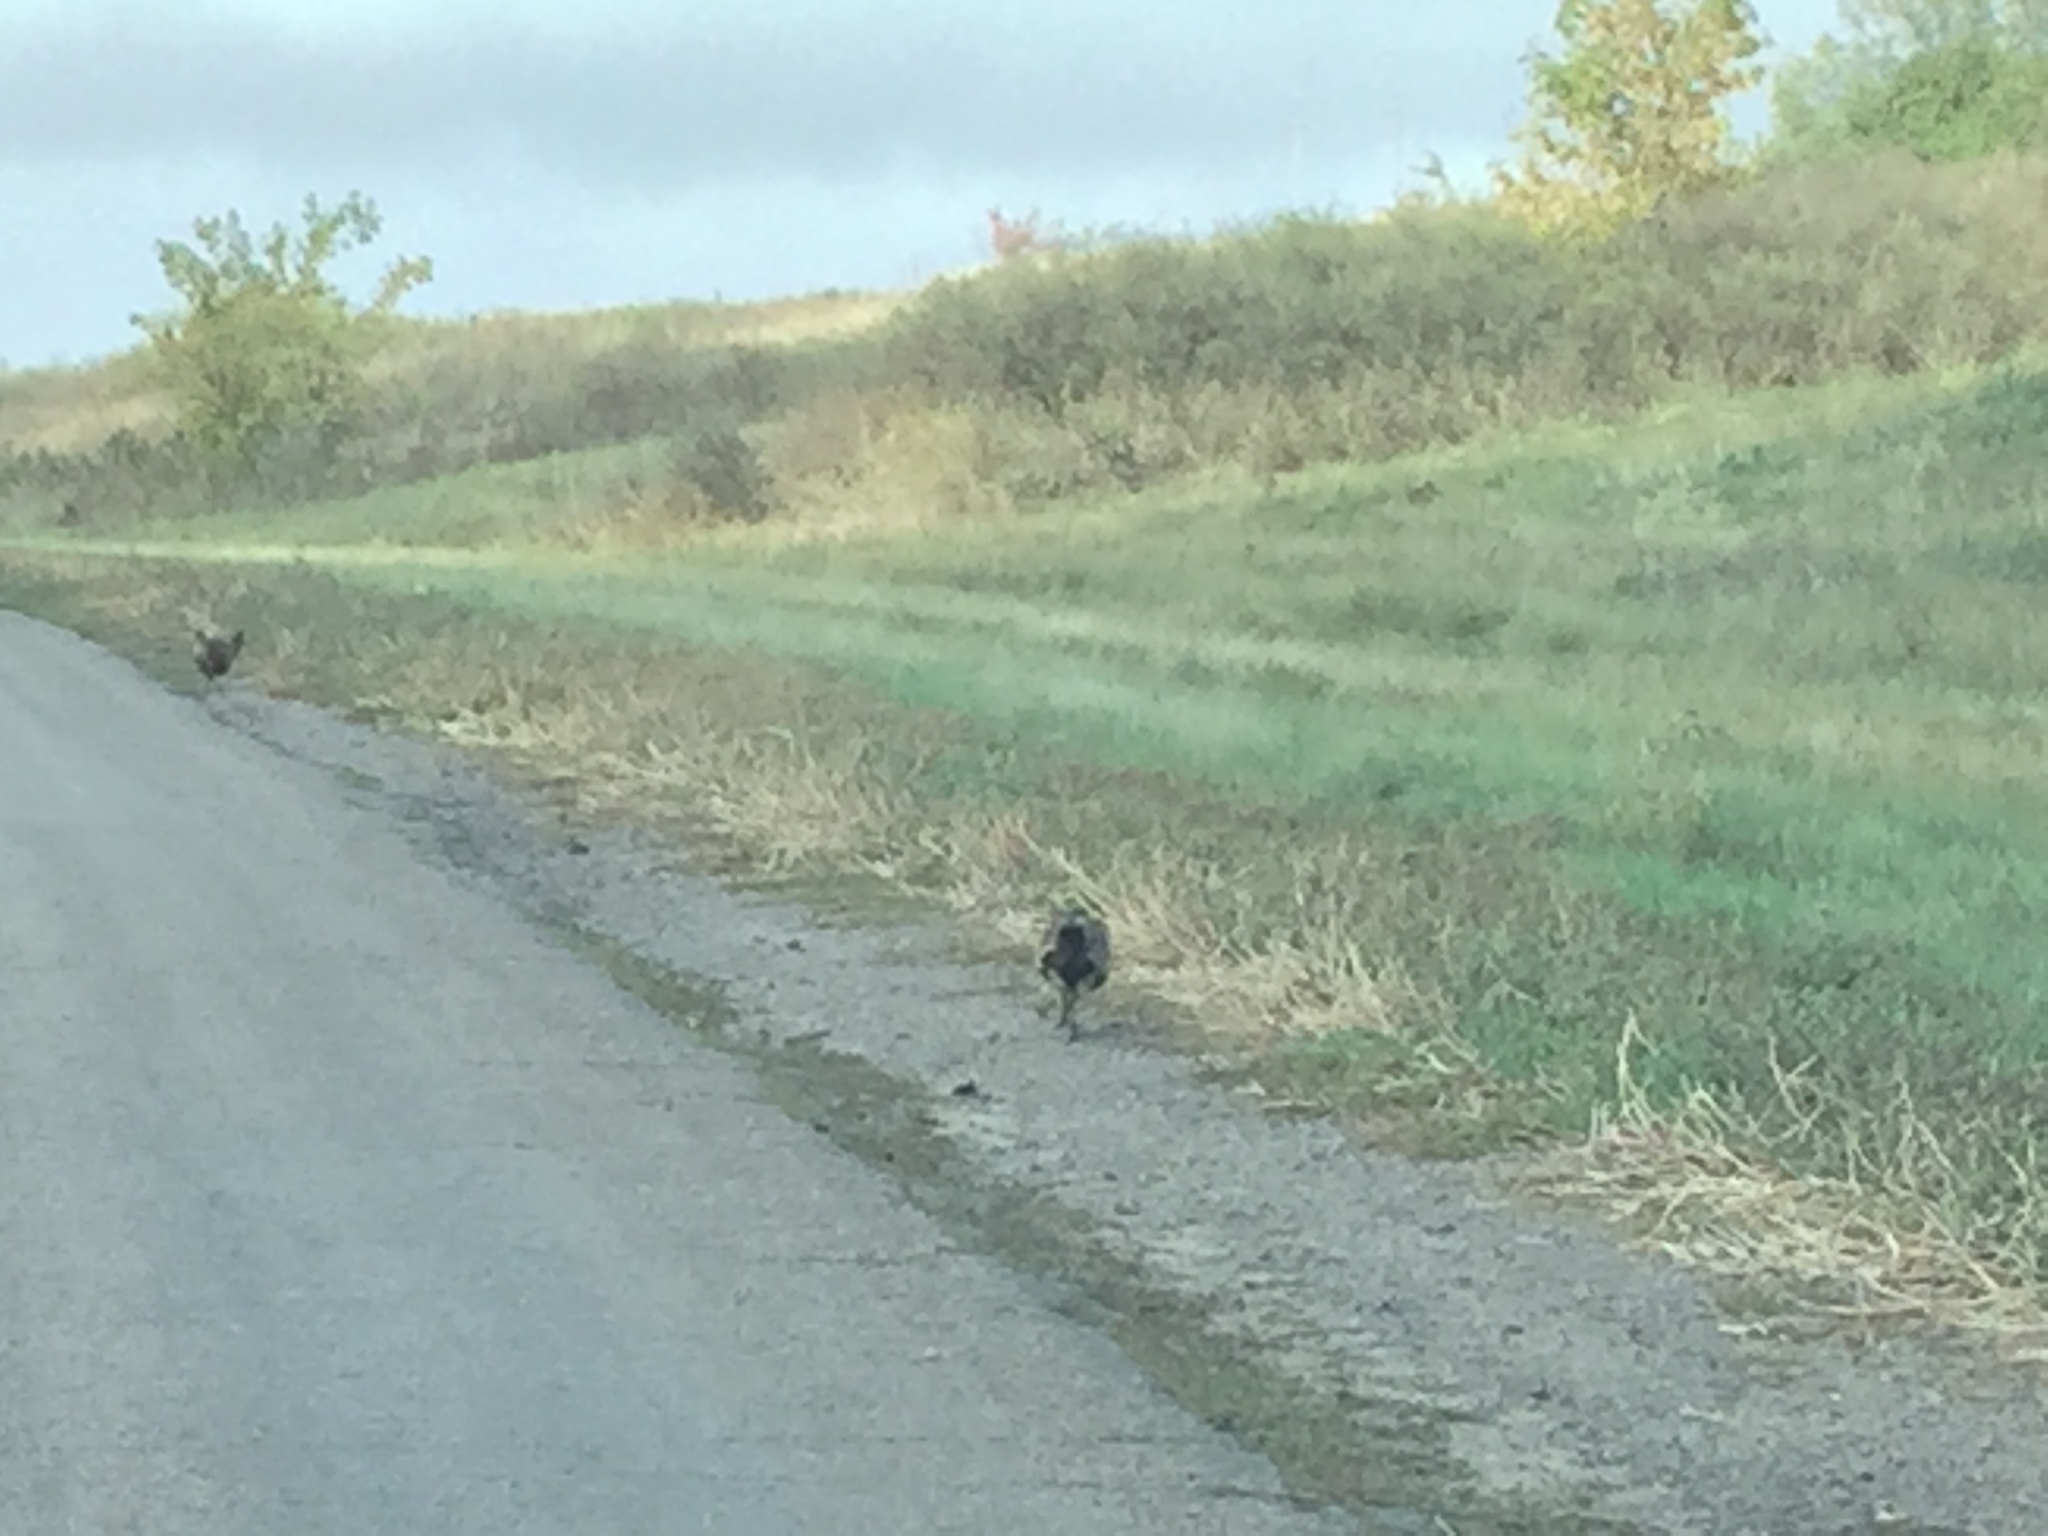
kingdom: Animalia
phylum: Chordata
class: Aves
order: Galliformes
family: Phasianidae
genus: Phasianus
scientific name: Phasianus colchicus
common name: Common pheasant
